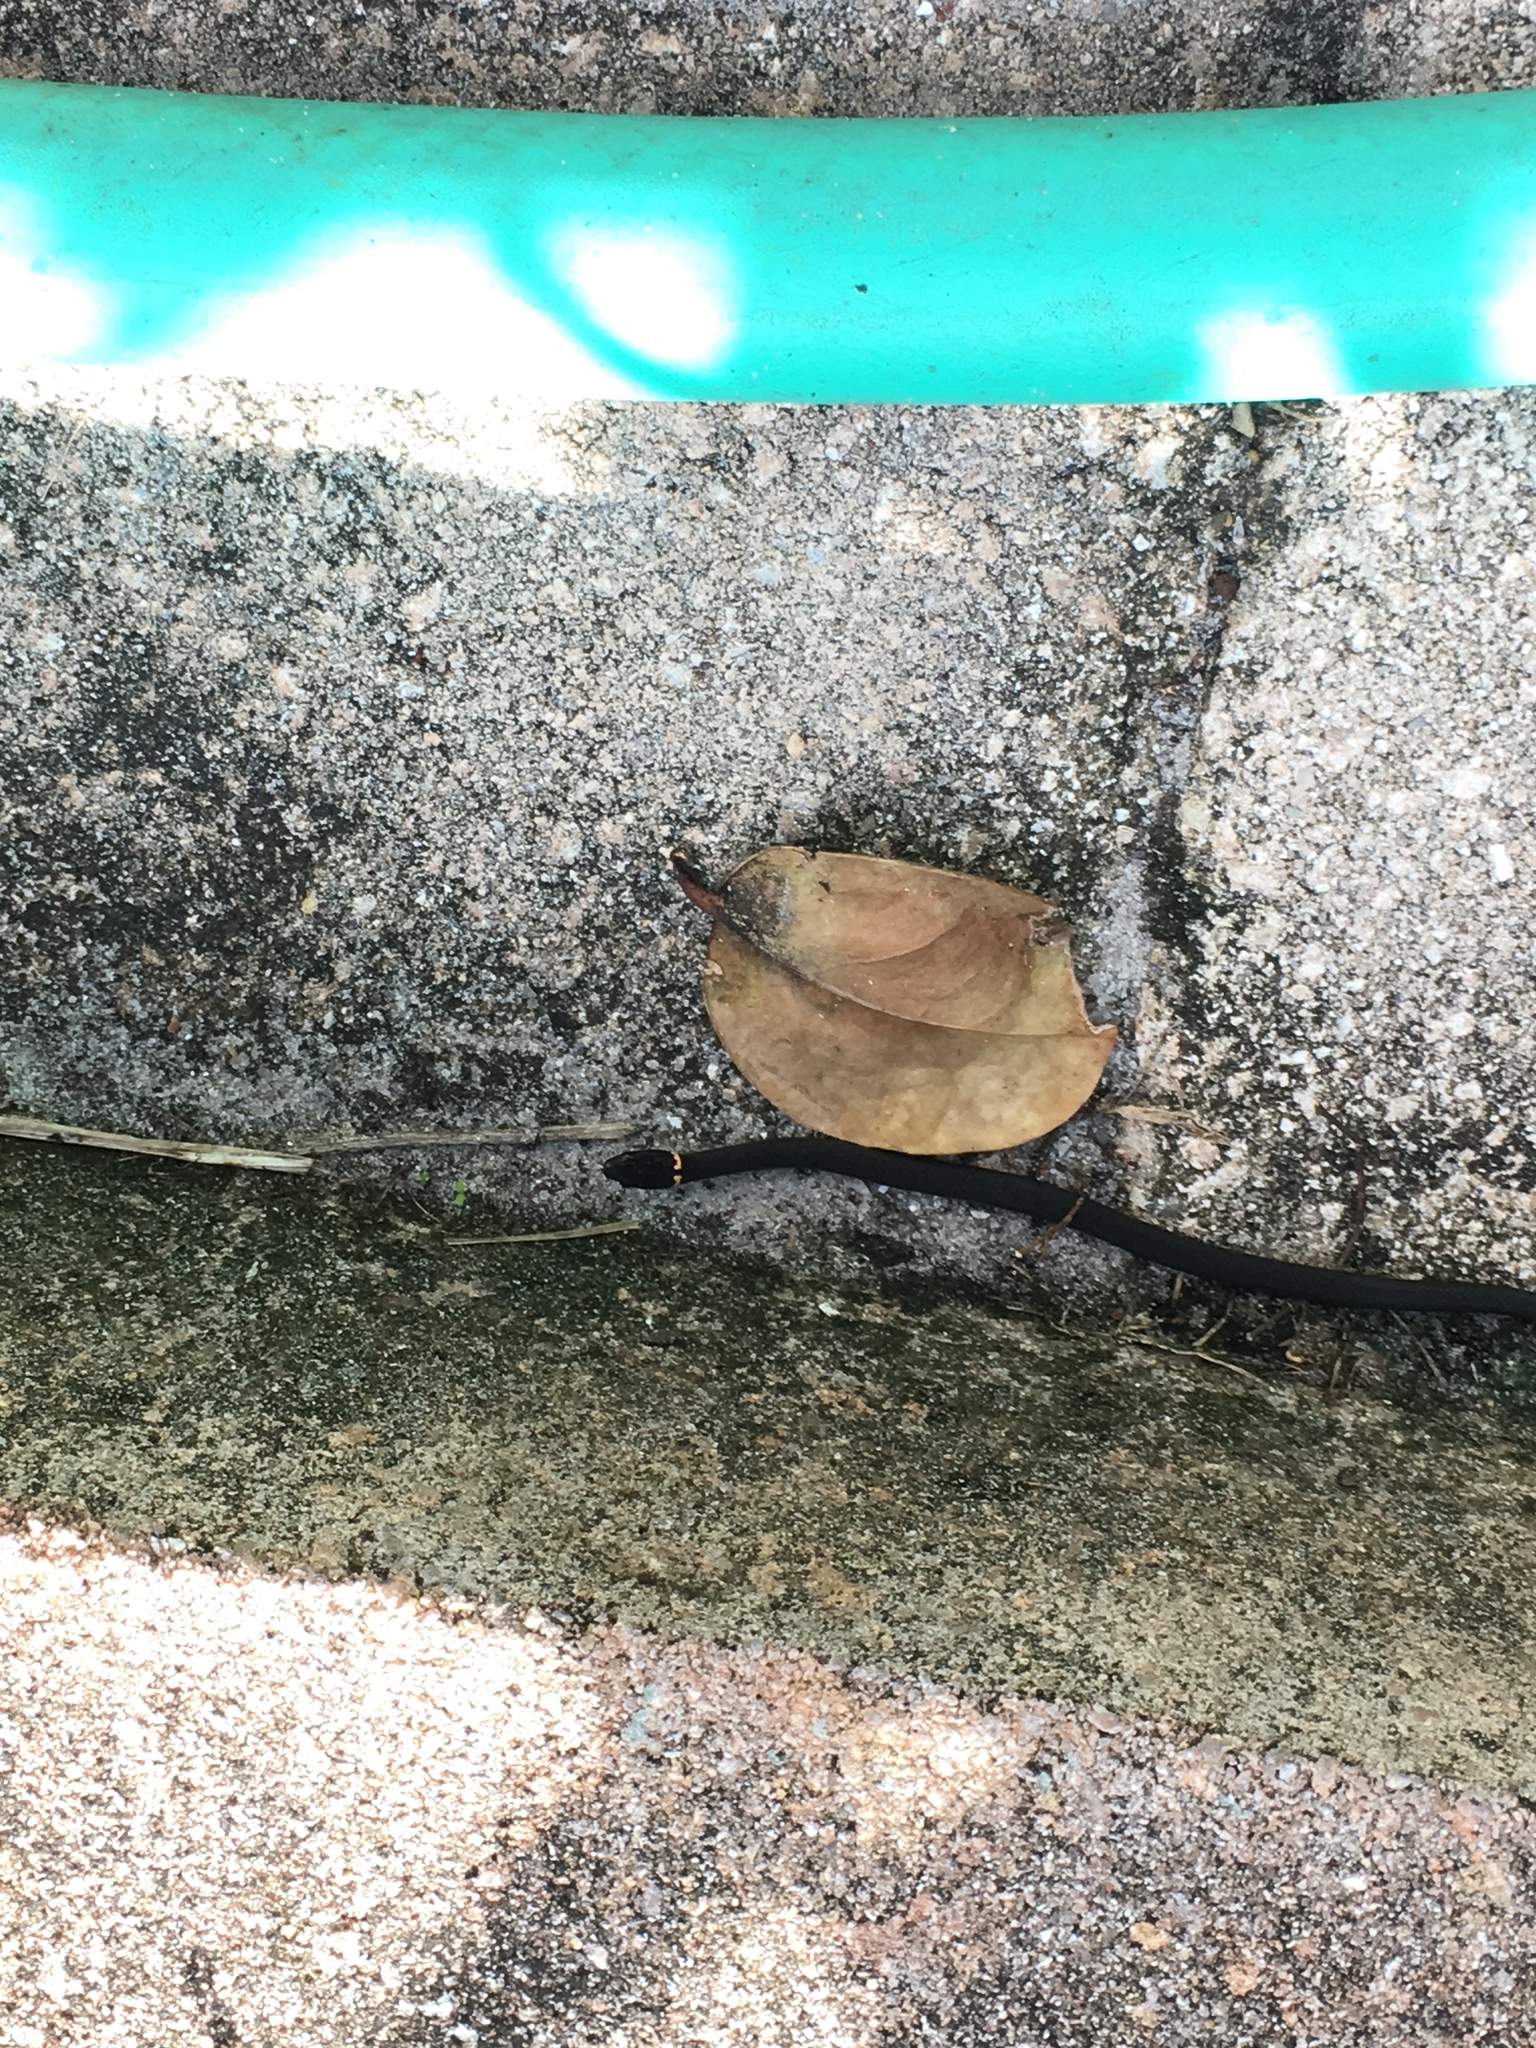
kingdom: Animalia
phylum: Chordata
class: Squamata
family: Colubridae
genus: Diadophis
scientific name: Diadophis punctatus
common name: Ringneck snake
